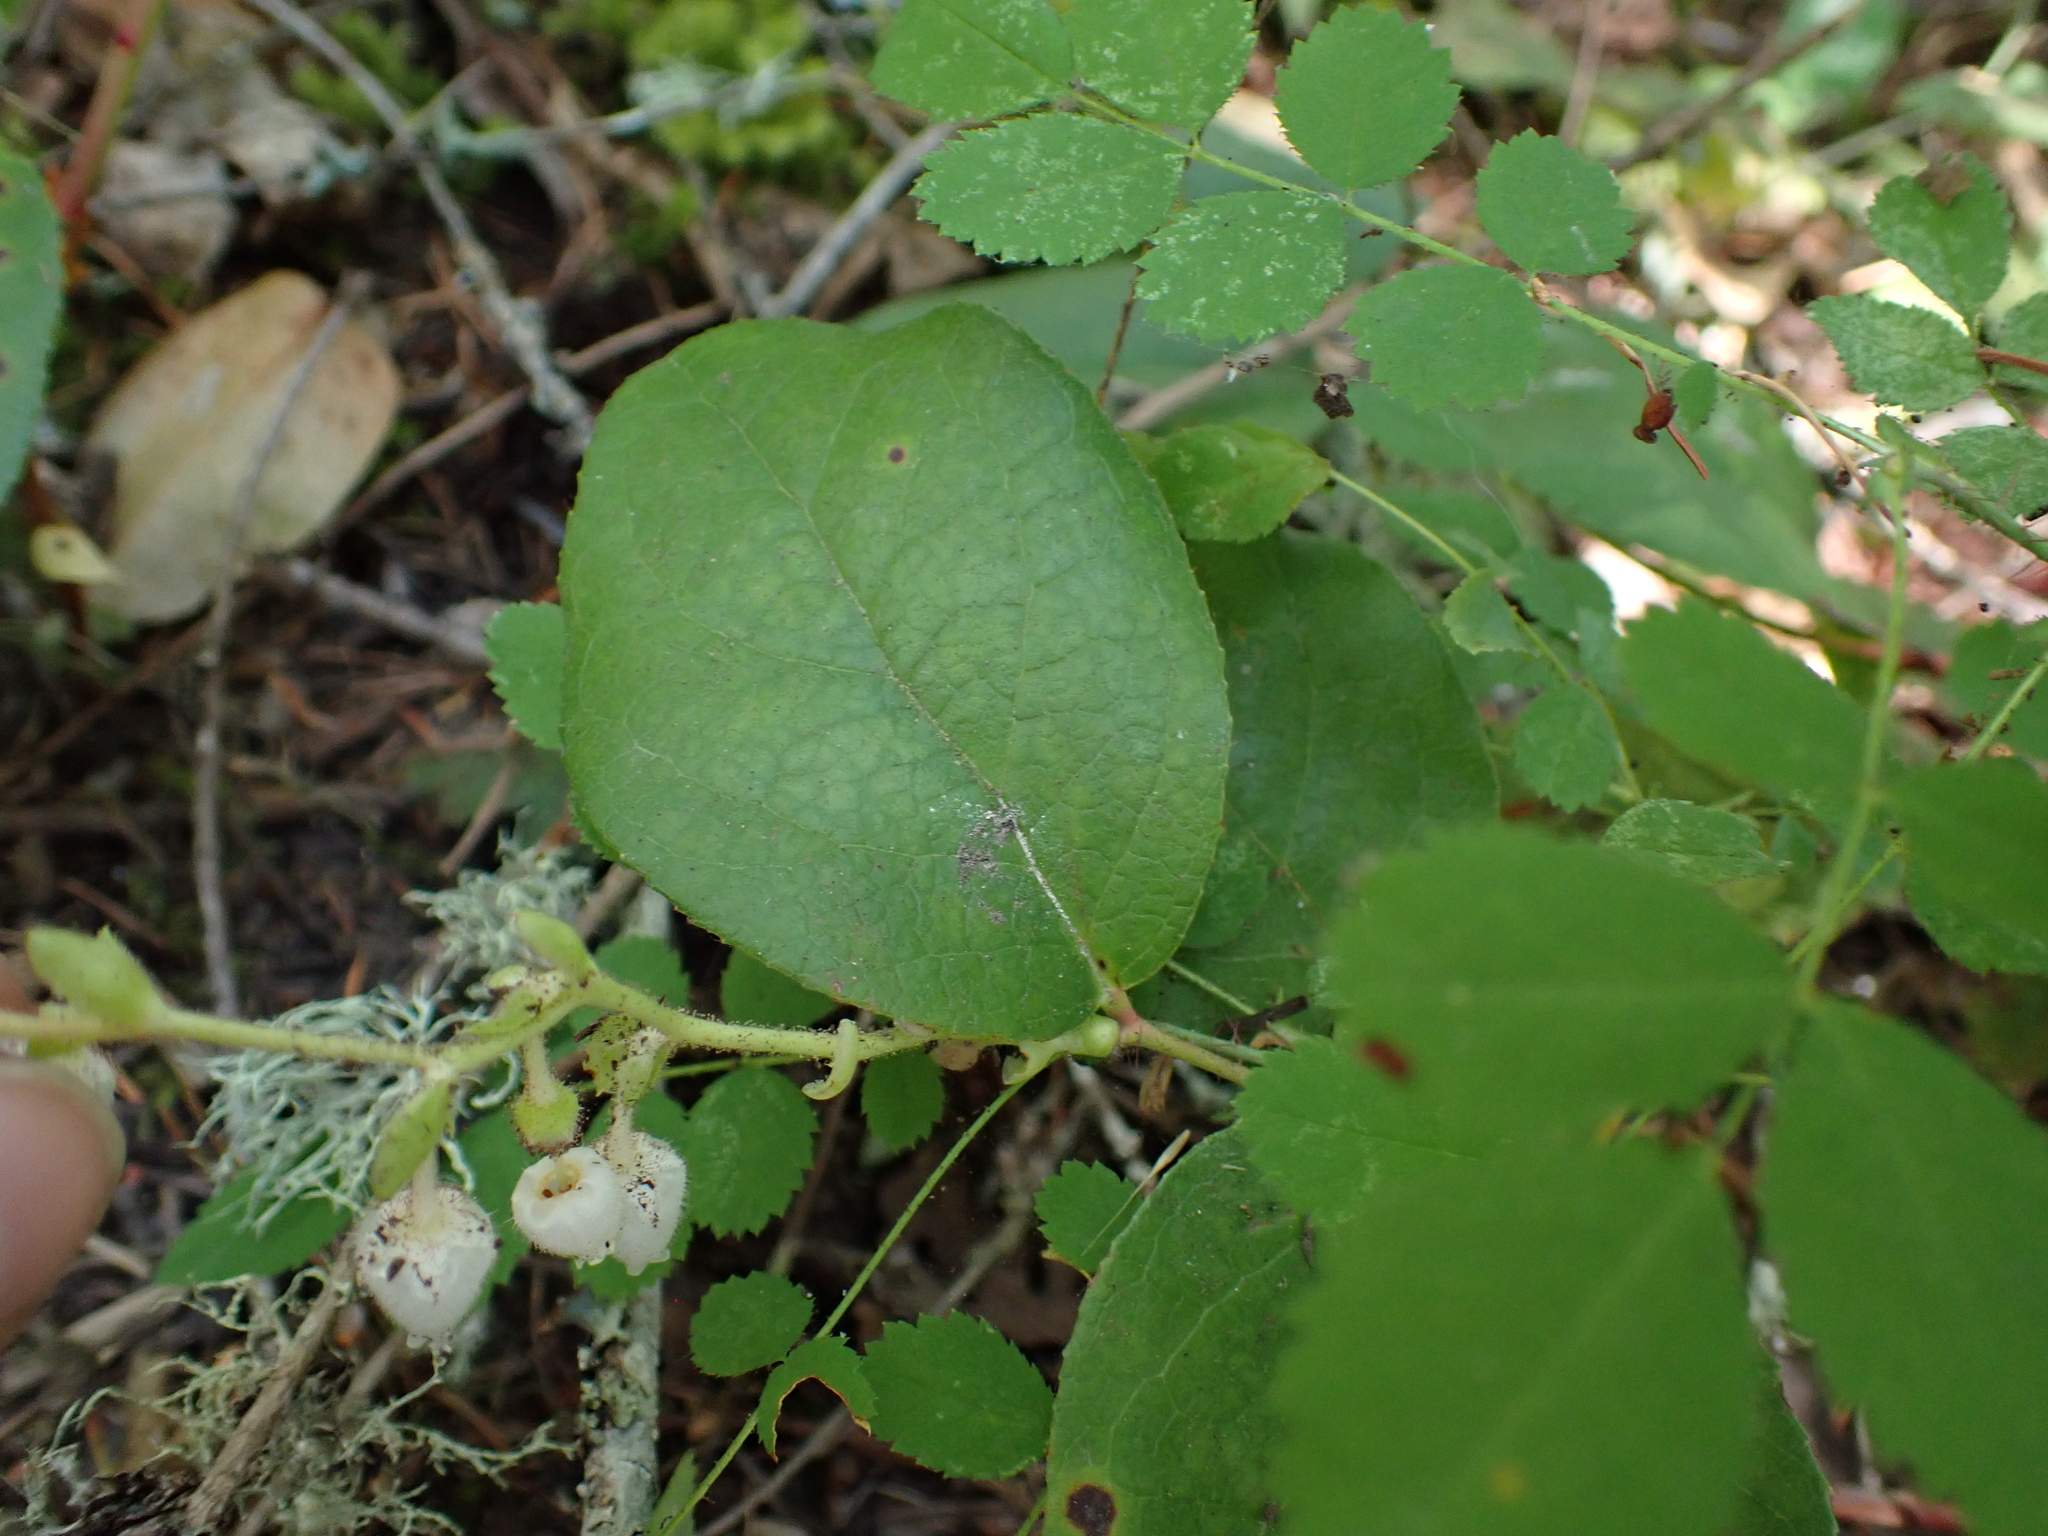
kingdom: Plantae
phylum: Tracheophyta
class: Magnoliopsida
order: Ericales
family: Ericaceae
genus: Gaultheria
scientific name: Gaultheria shallon
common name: Shallon
